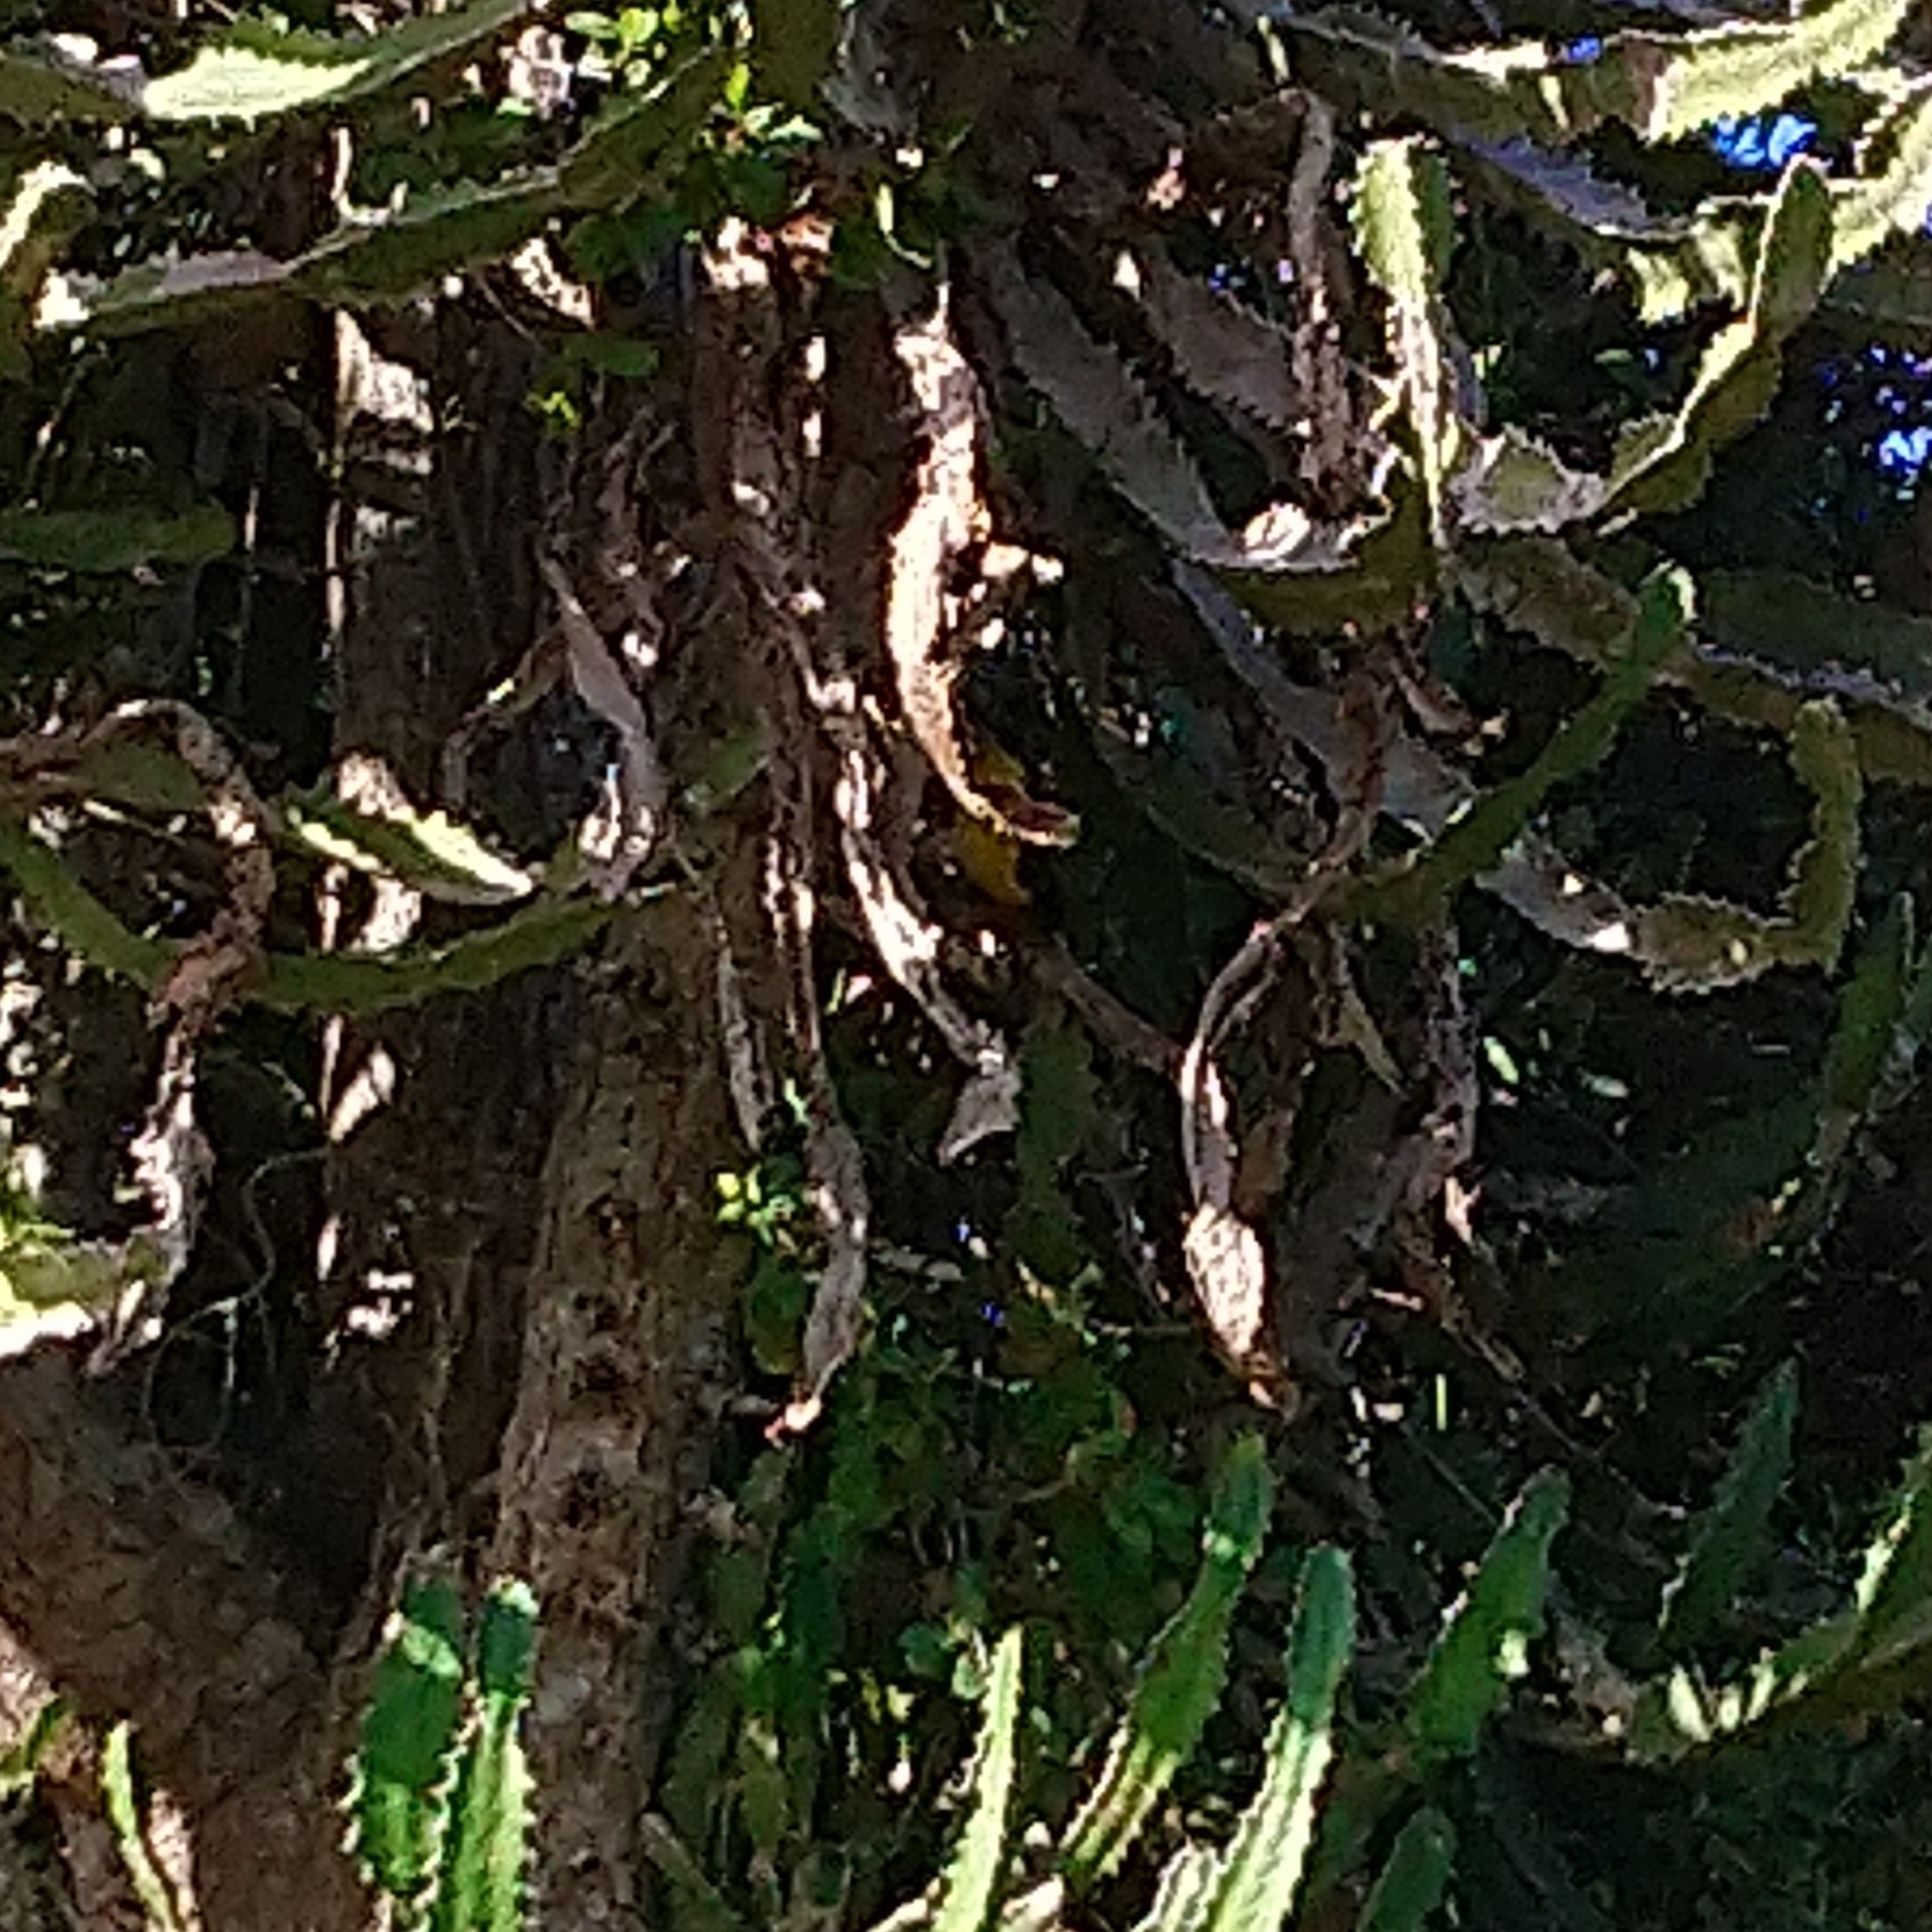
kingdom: Animalia
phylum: Chordata
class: Aves
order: Passeriformes
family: Ploceidae
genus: Ploceus
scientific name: Ploceus bicolor
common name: Dark-backed weaver
